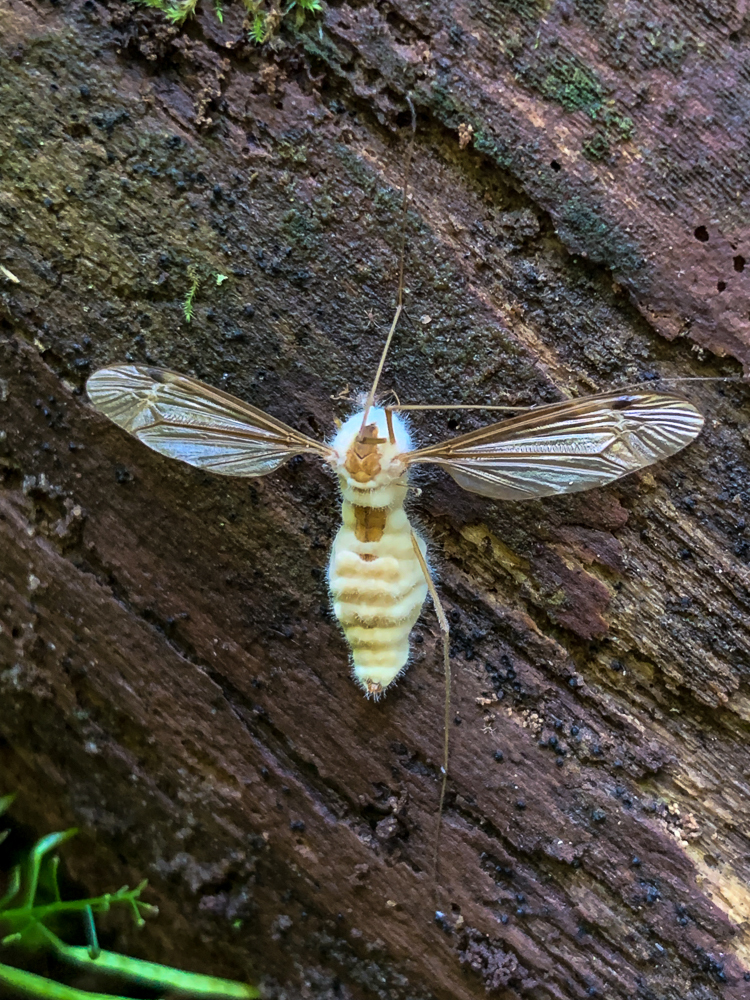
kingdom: Fungi
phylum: Entomophthoromycota
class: Entomophthoromycetes
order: Entomophthorales
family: Entomophthoraceae
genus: Eryniopsis
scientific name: Eryniopsis caroliniana
